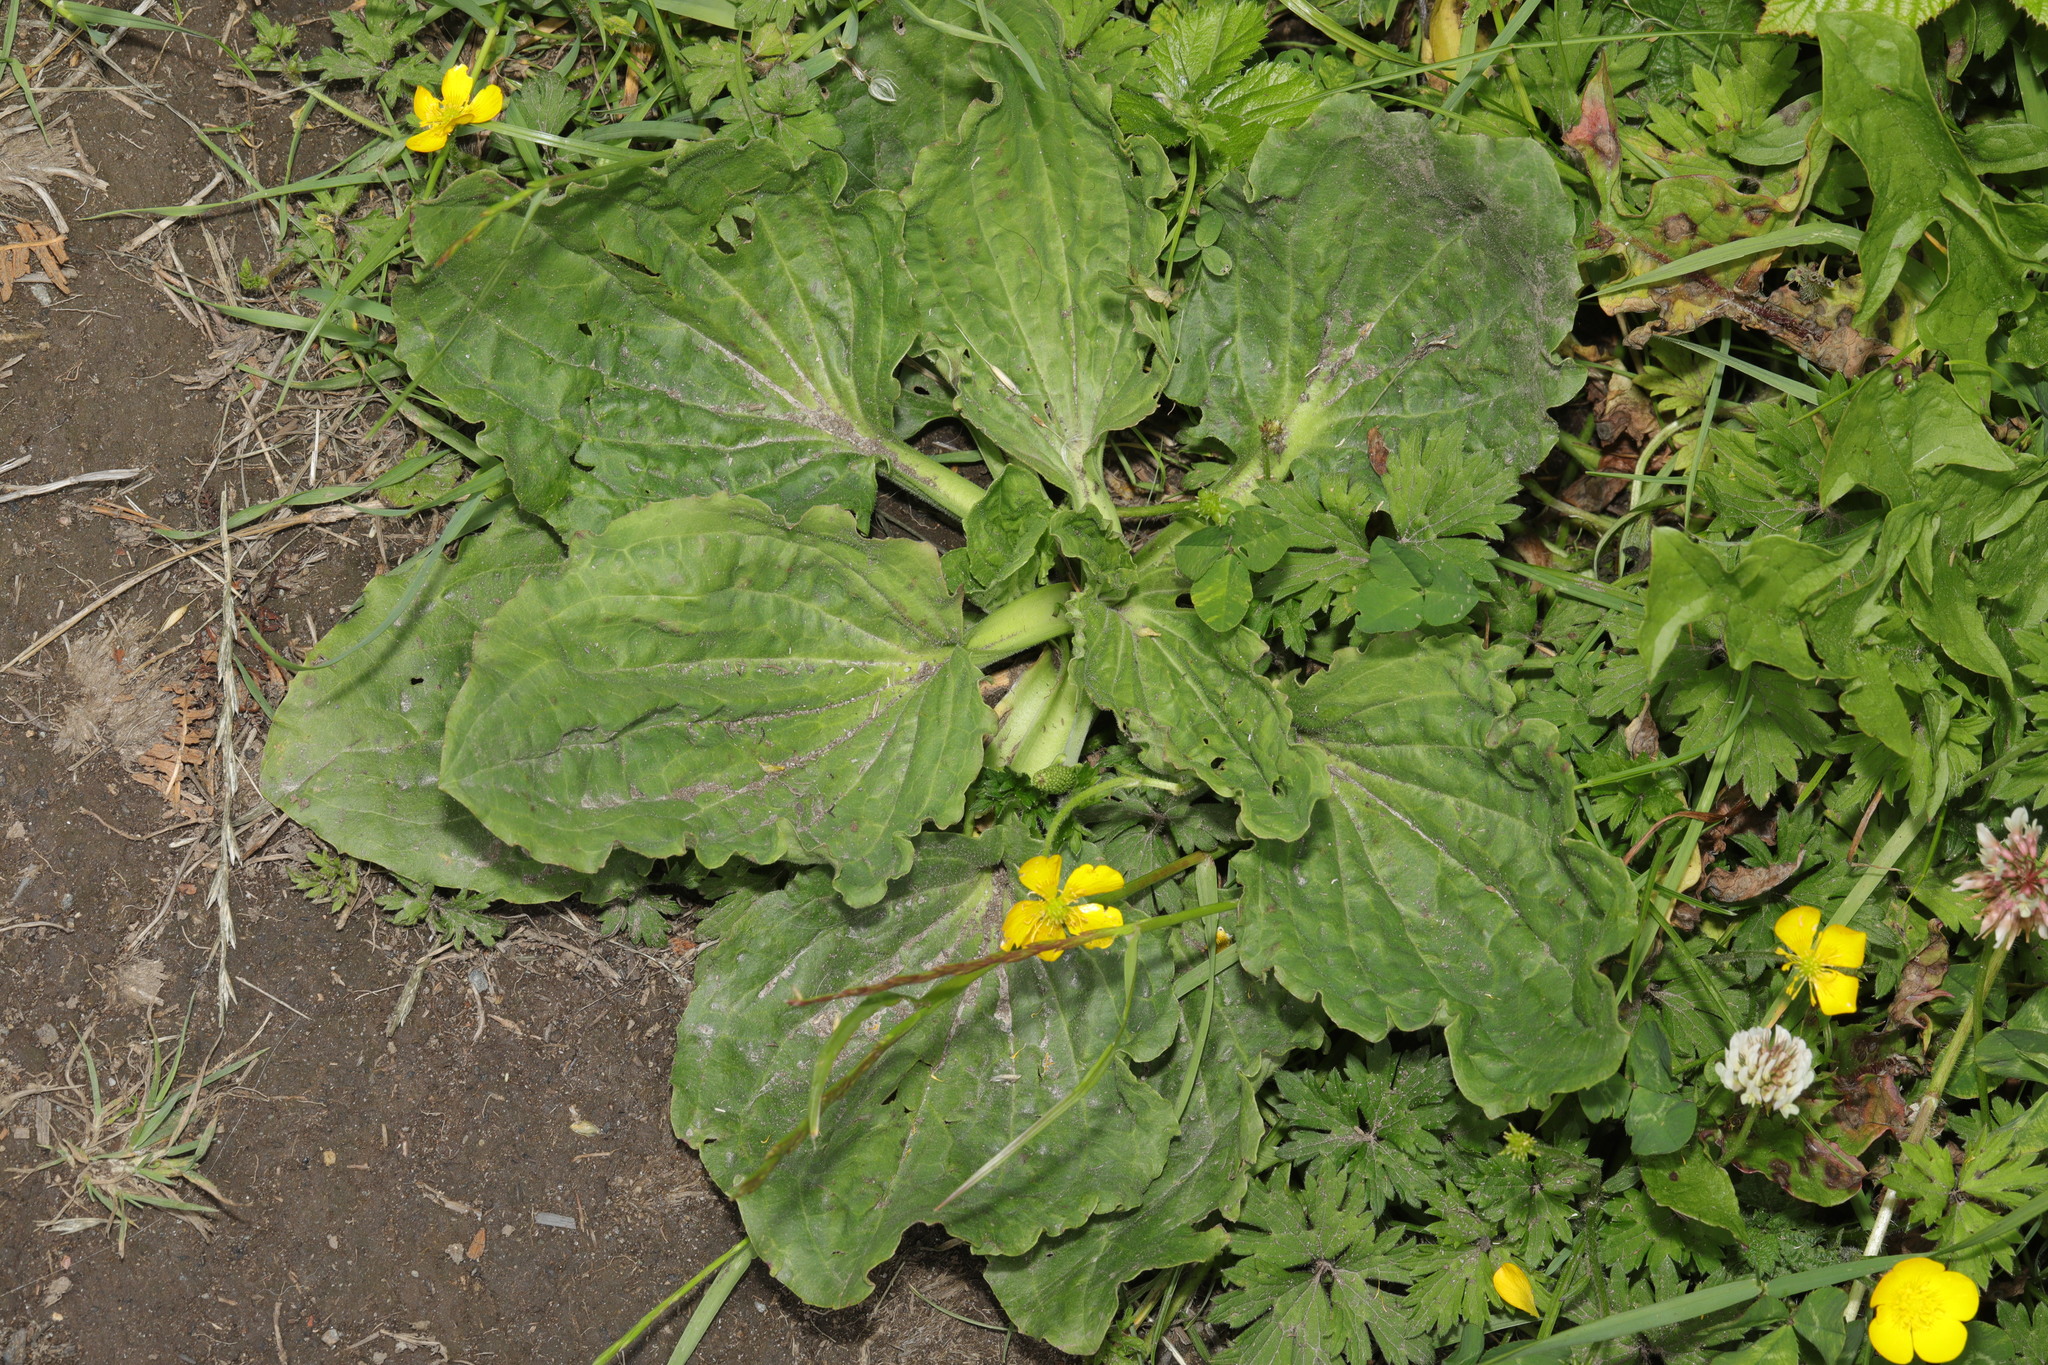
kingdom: Plantae
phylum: Tracheophyta
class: Magnoliopsida
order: Lamiales
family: Plantaginaceae
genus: Plantago
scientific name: Plantago major
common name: Common plantain
